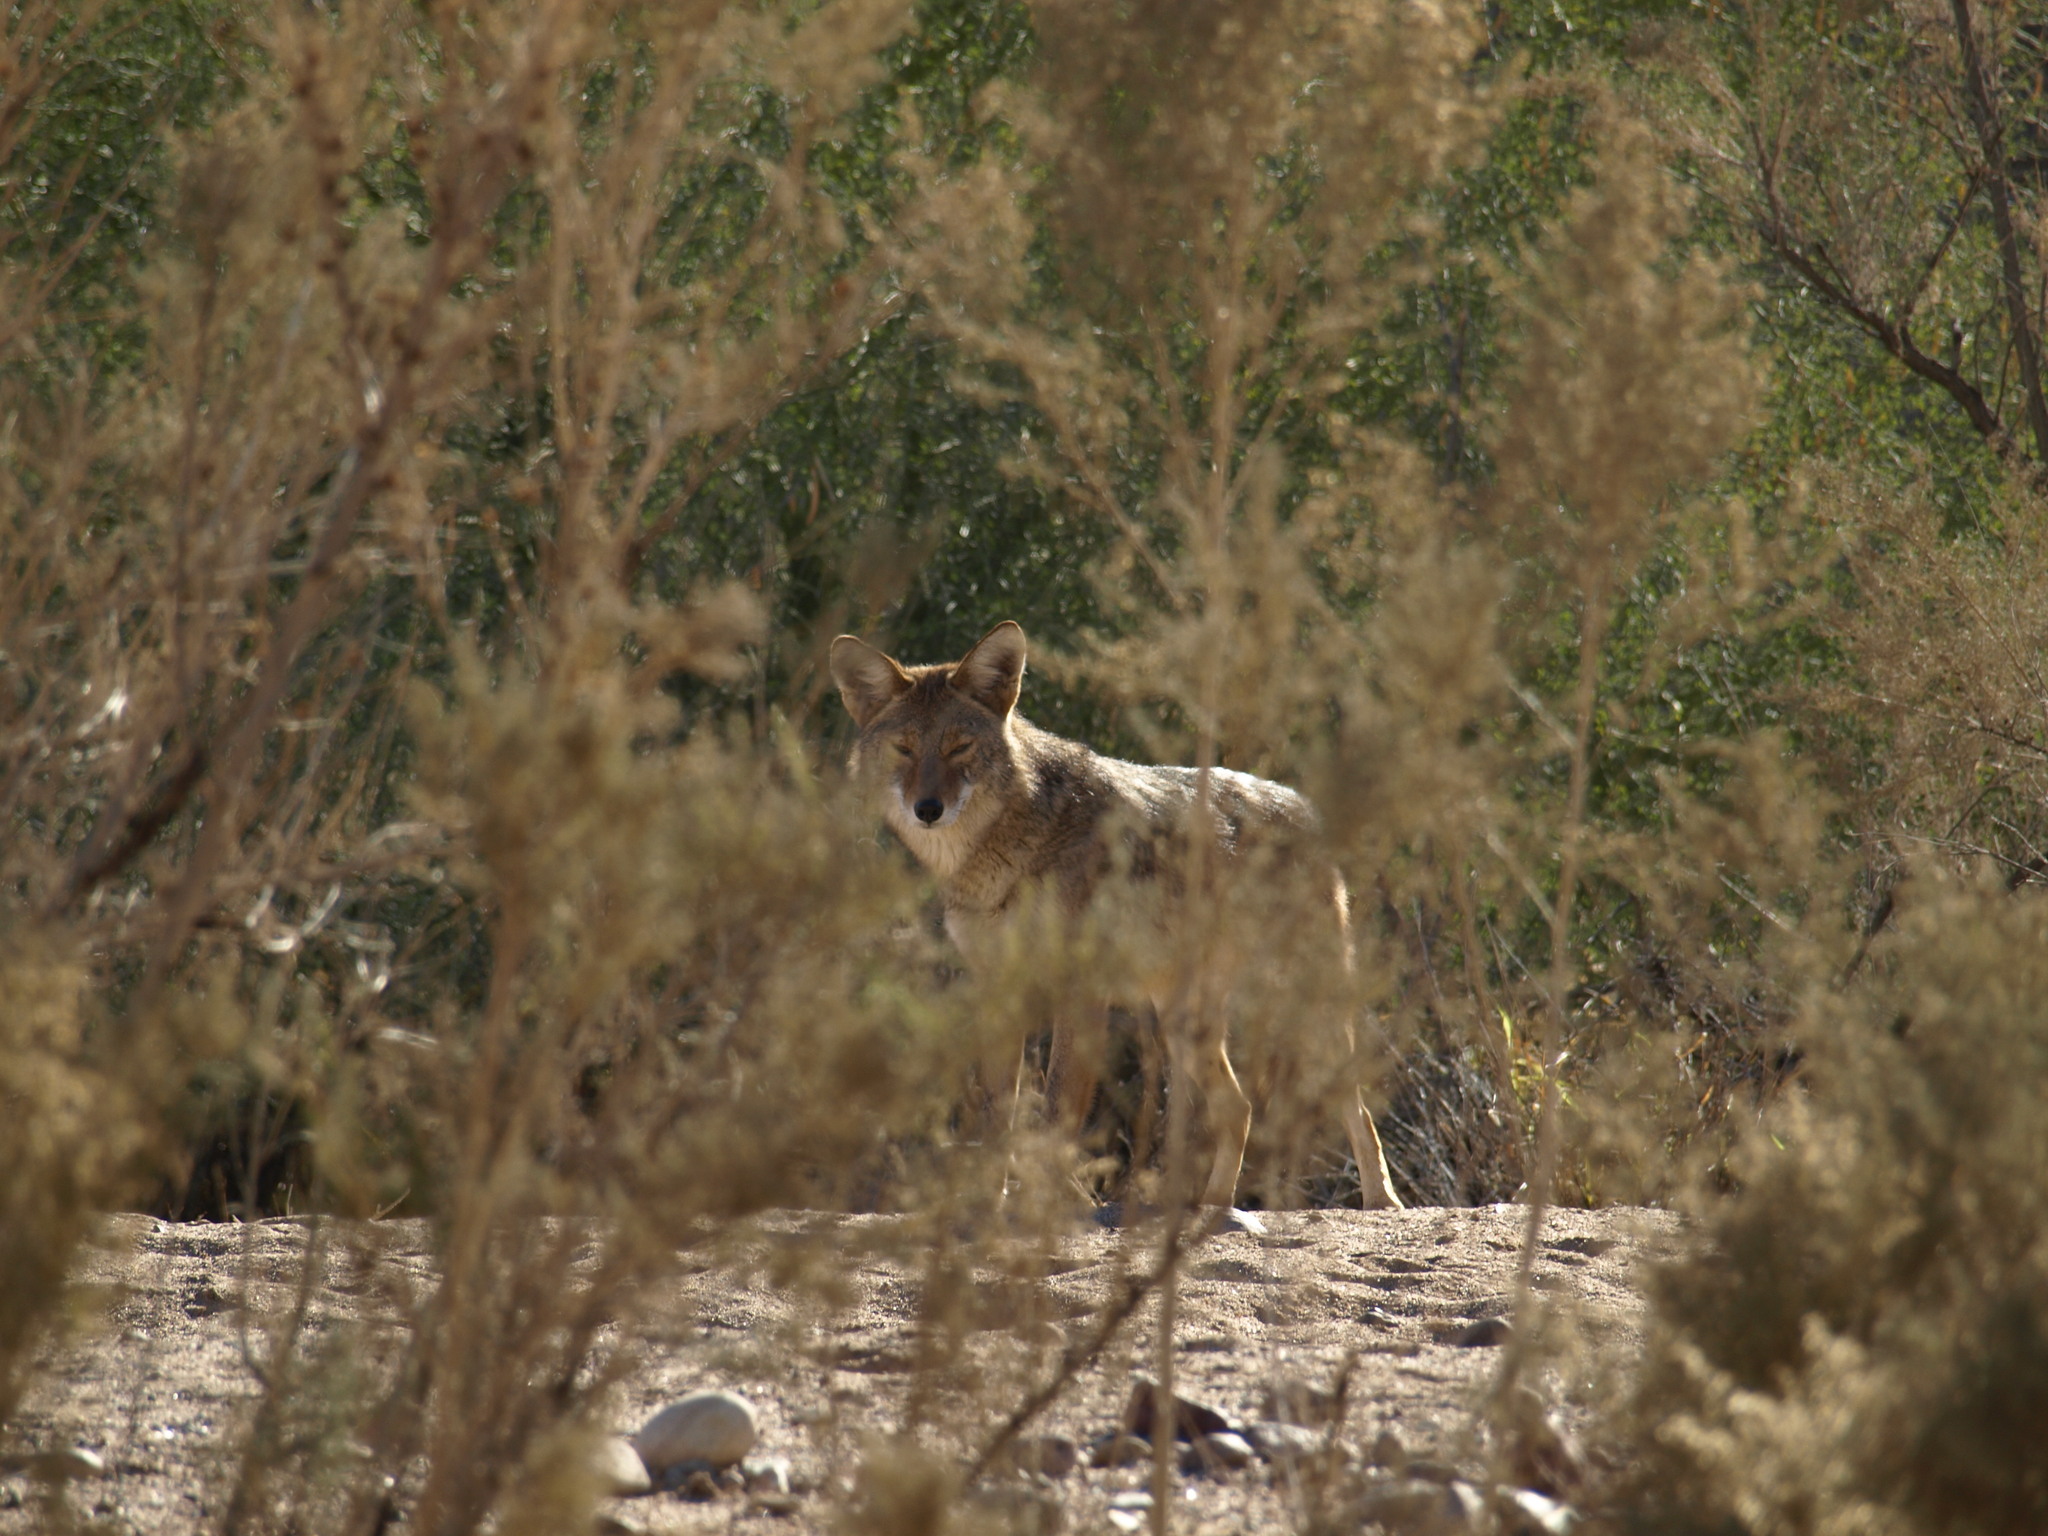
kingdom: Animalia
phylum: Chordata
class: Mammalia
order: Carnivora
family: Canidae
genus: Canis
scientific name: Canis latrans
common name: Coyote
